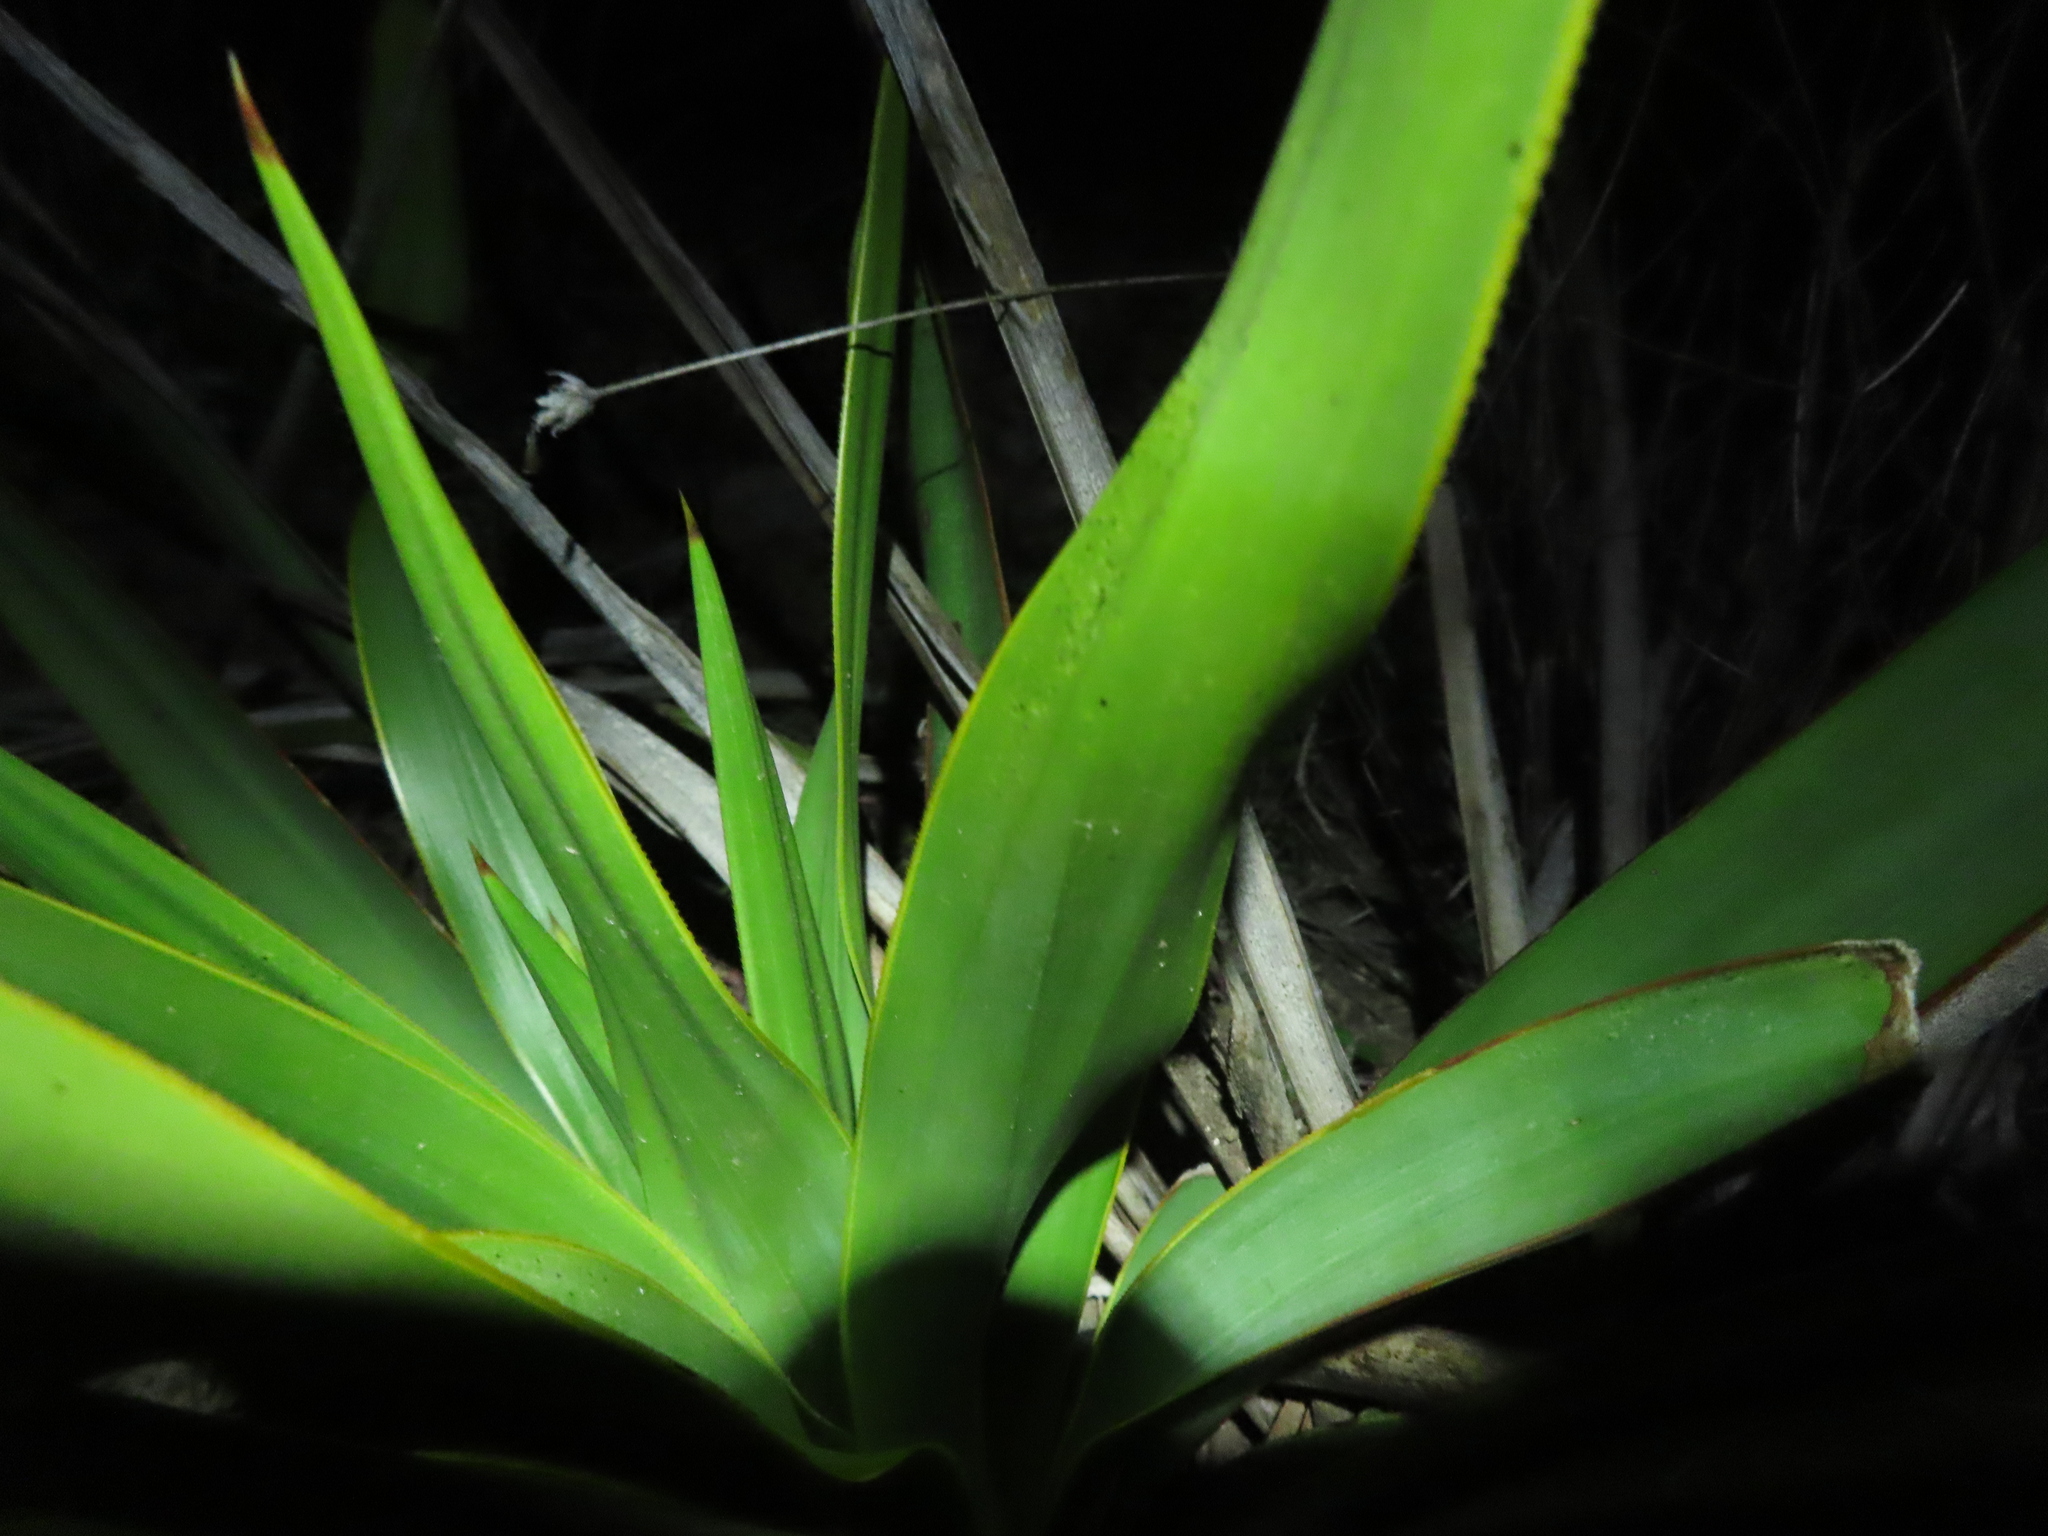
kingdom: Plantae
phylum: Tracheophyta
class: Liliopsida
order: Asparagales
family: Asparagaceae
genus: Yucca
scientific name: Yucca rupicola
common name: Twisted-leaf spanish-dagger
